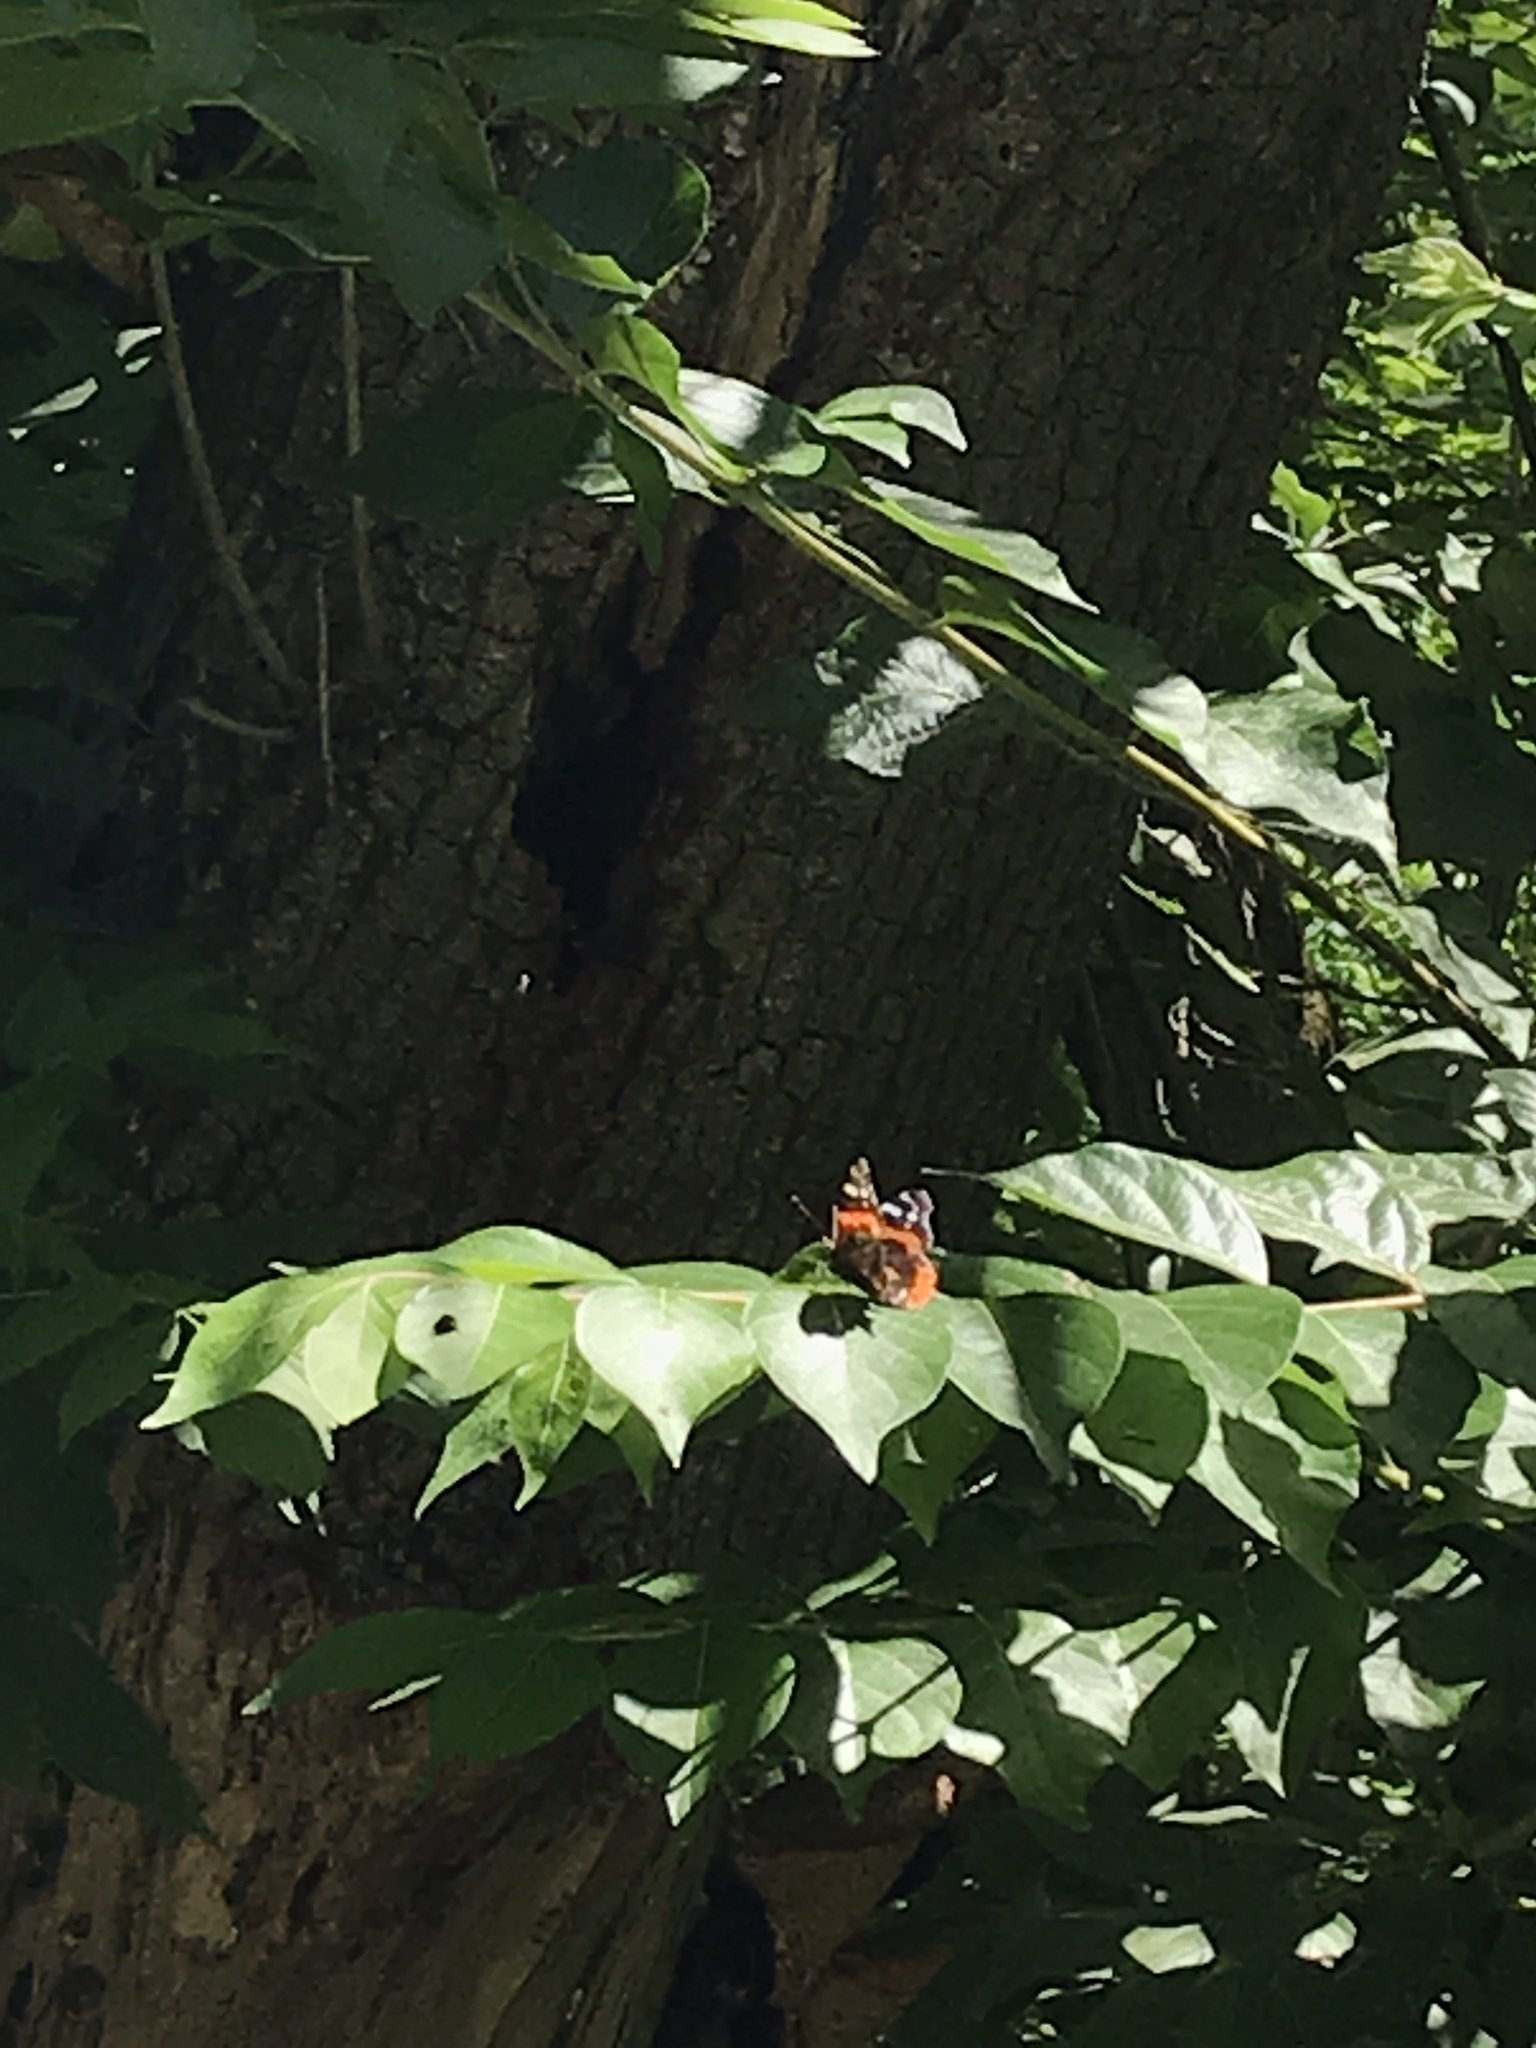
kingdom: Animalia
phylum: Arthropoda
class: Insecta
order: Lepidoptera
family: Nymphalidae
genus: Vanessa
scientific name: Vanessa atalanta
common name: Red admiral
